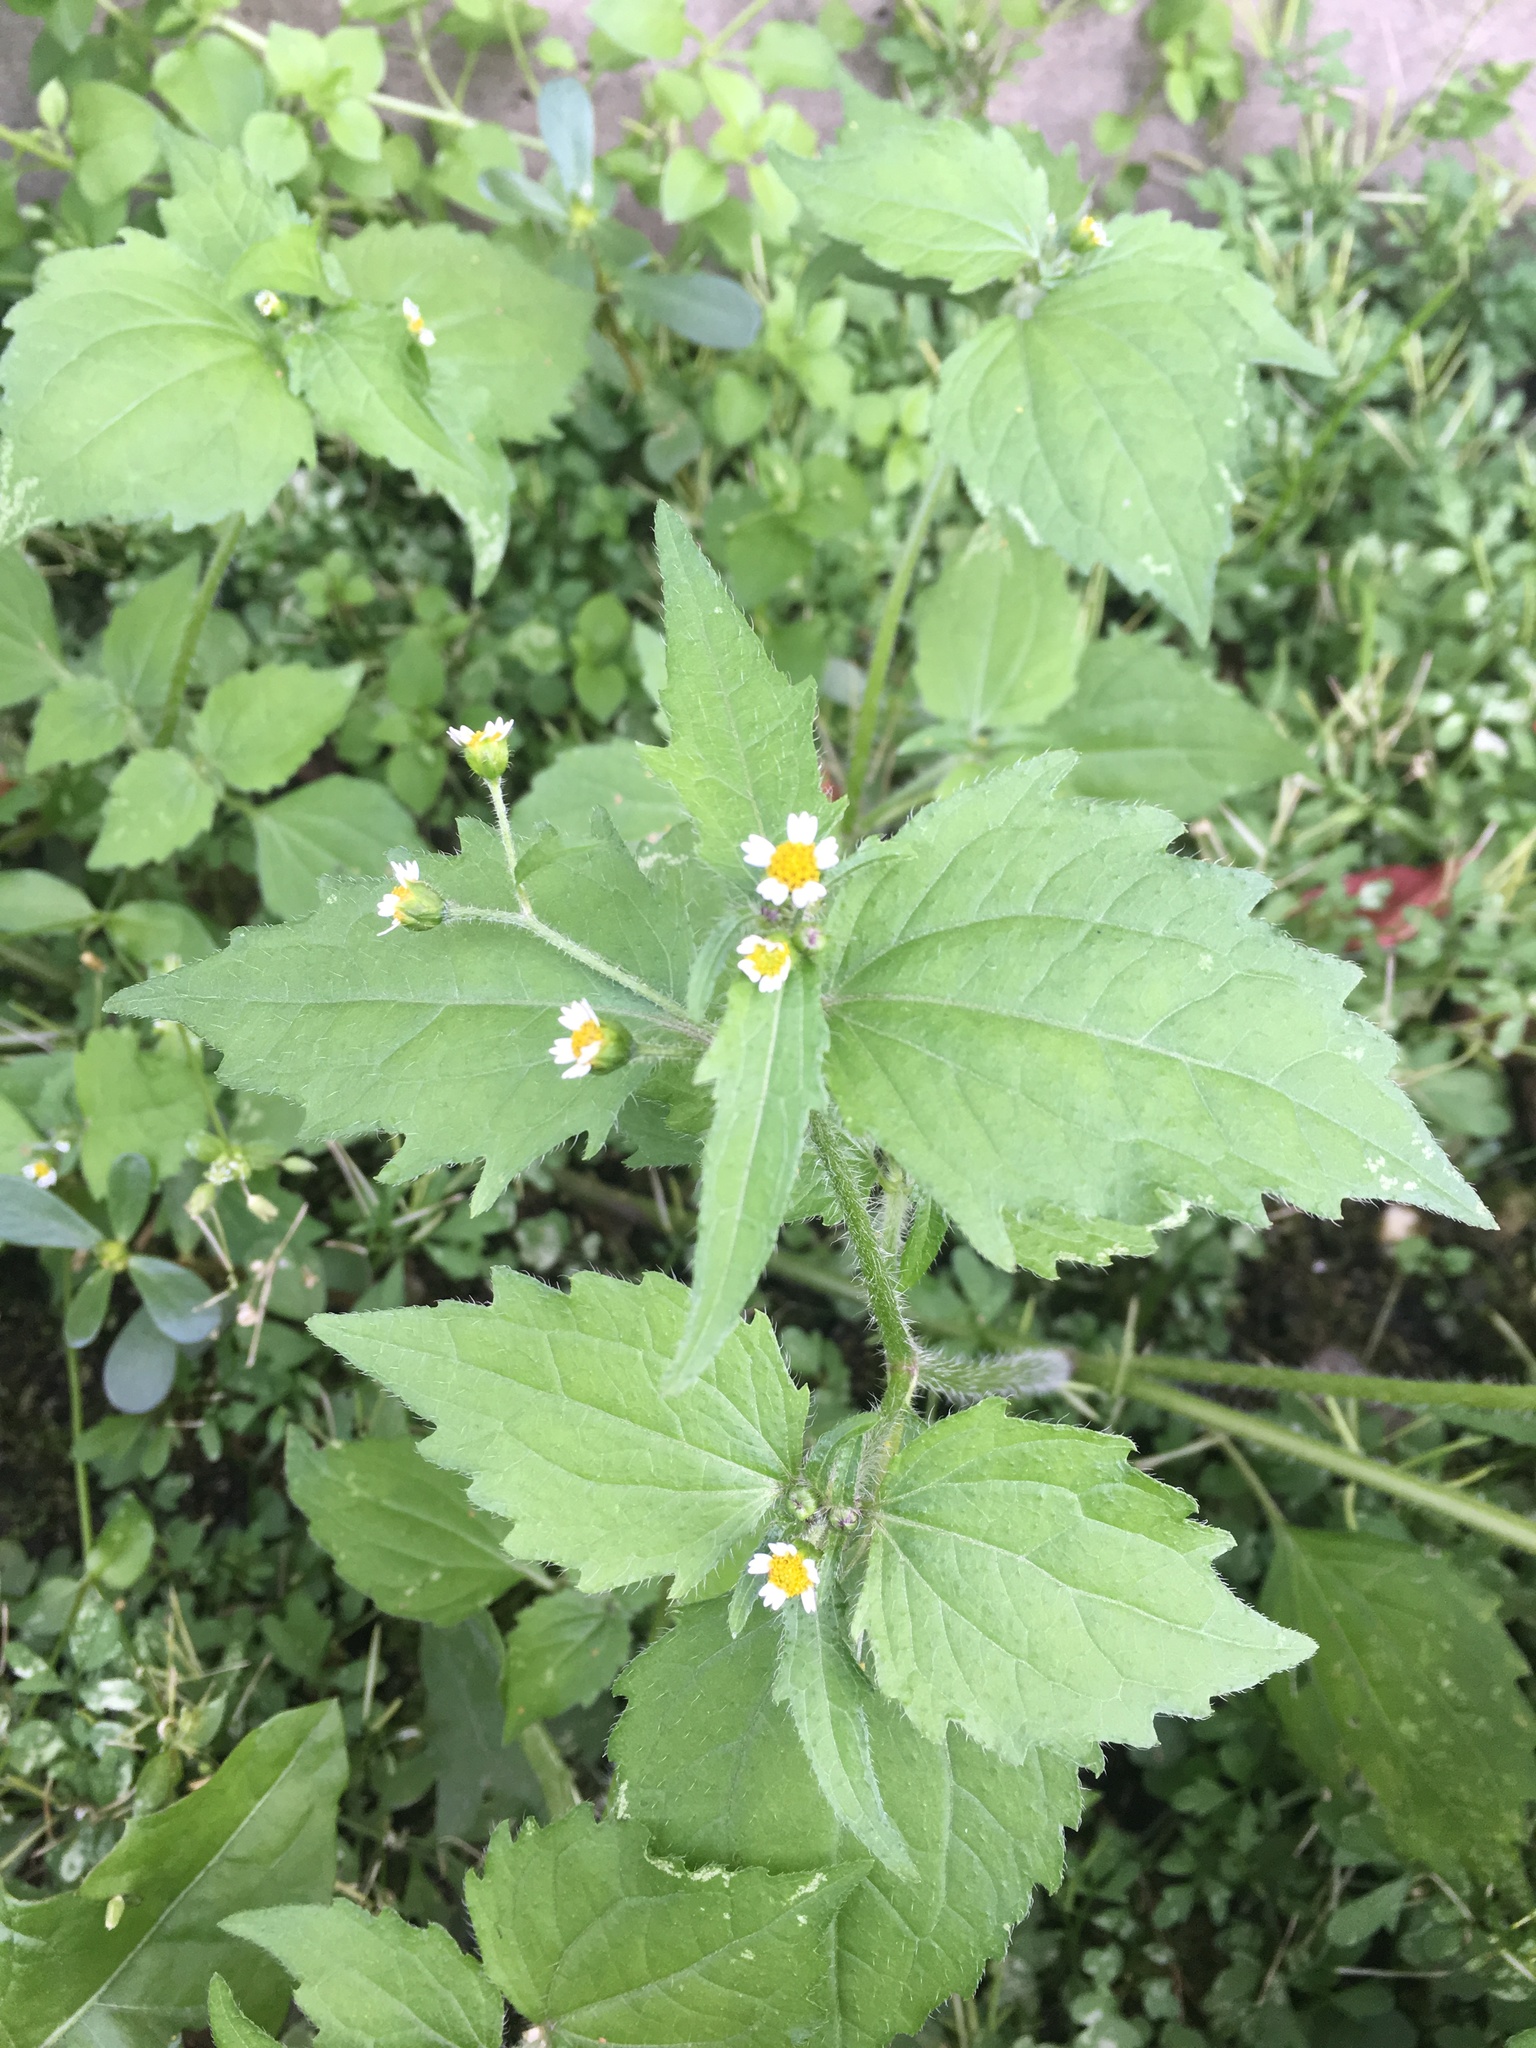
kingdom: Plantae
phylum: Tracheophyta
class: Magnoliopsida
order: Asterales
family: Asteraceae
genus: Galinsoga
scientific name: Galinsoga quadriradiata
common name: Shaggy soldier
